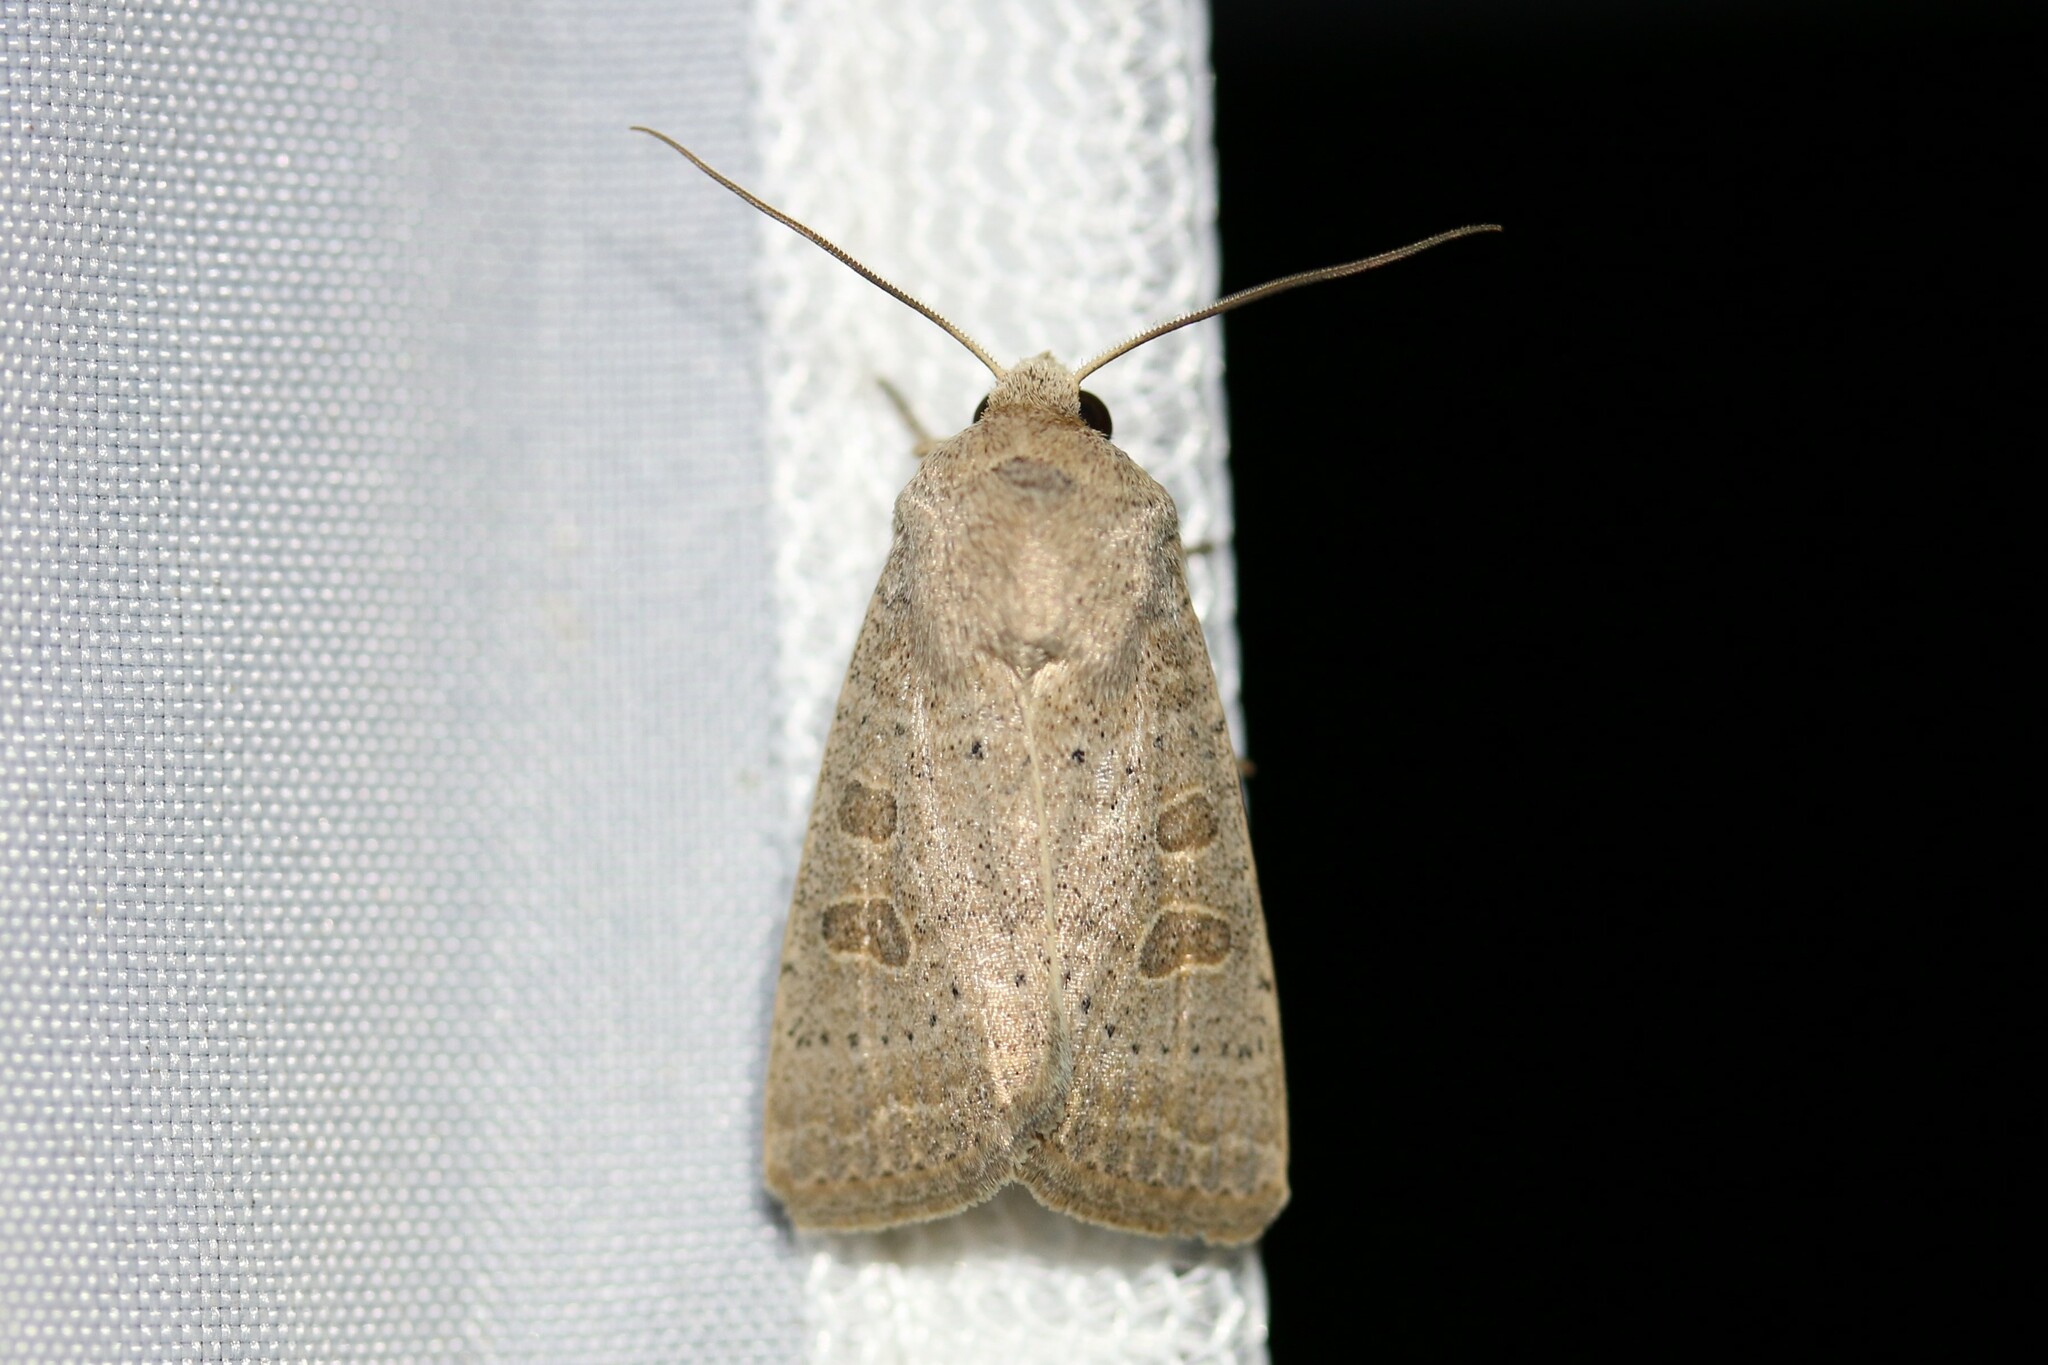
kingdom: Animalia
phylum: Arthropoda
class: Insecta
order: Lepidoptera
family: Noctuidae
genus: Hoplodrina
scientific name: Hoplodrina ambigua
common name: Vine's rustic
